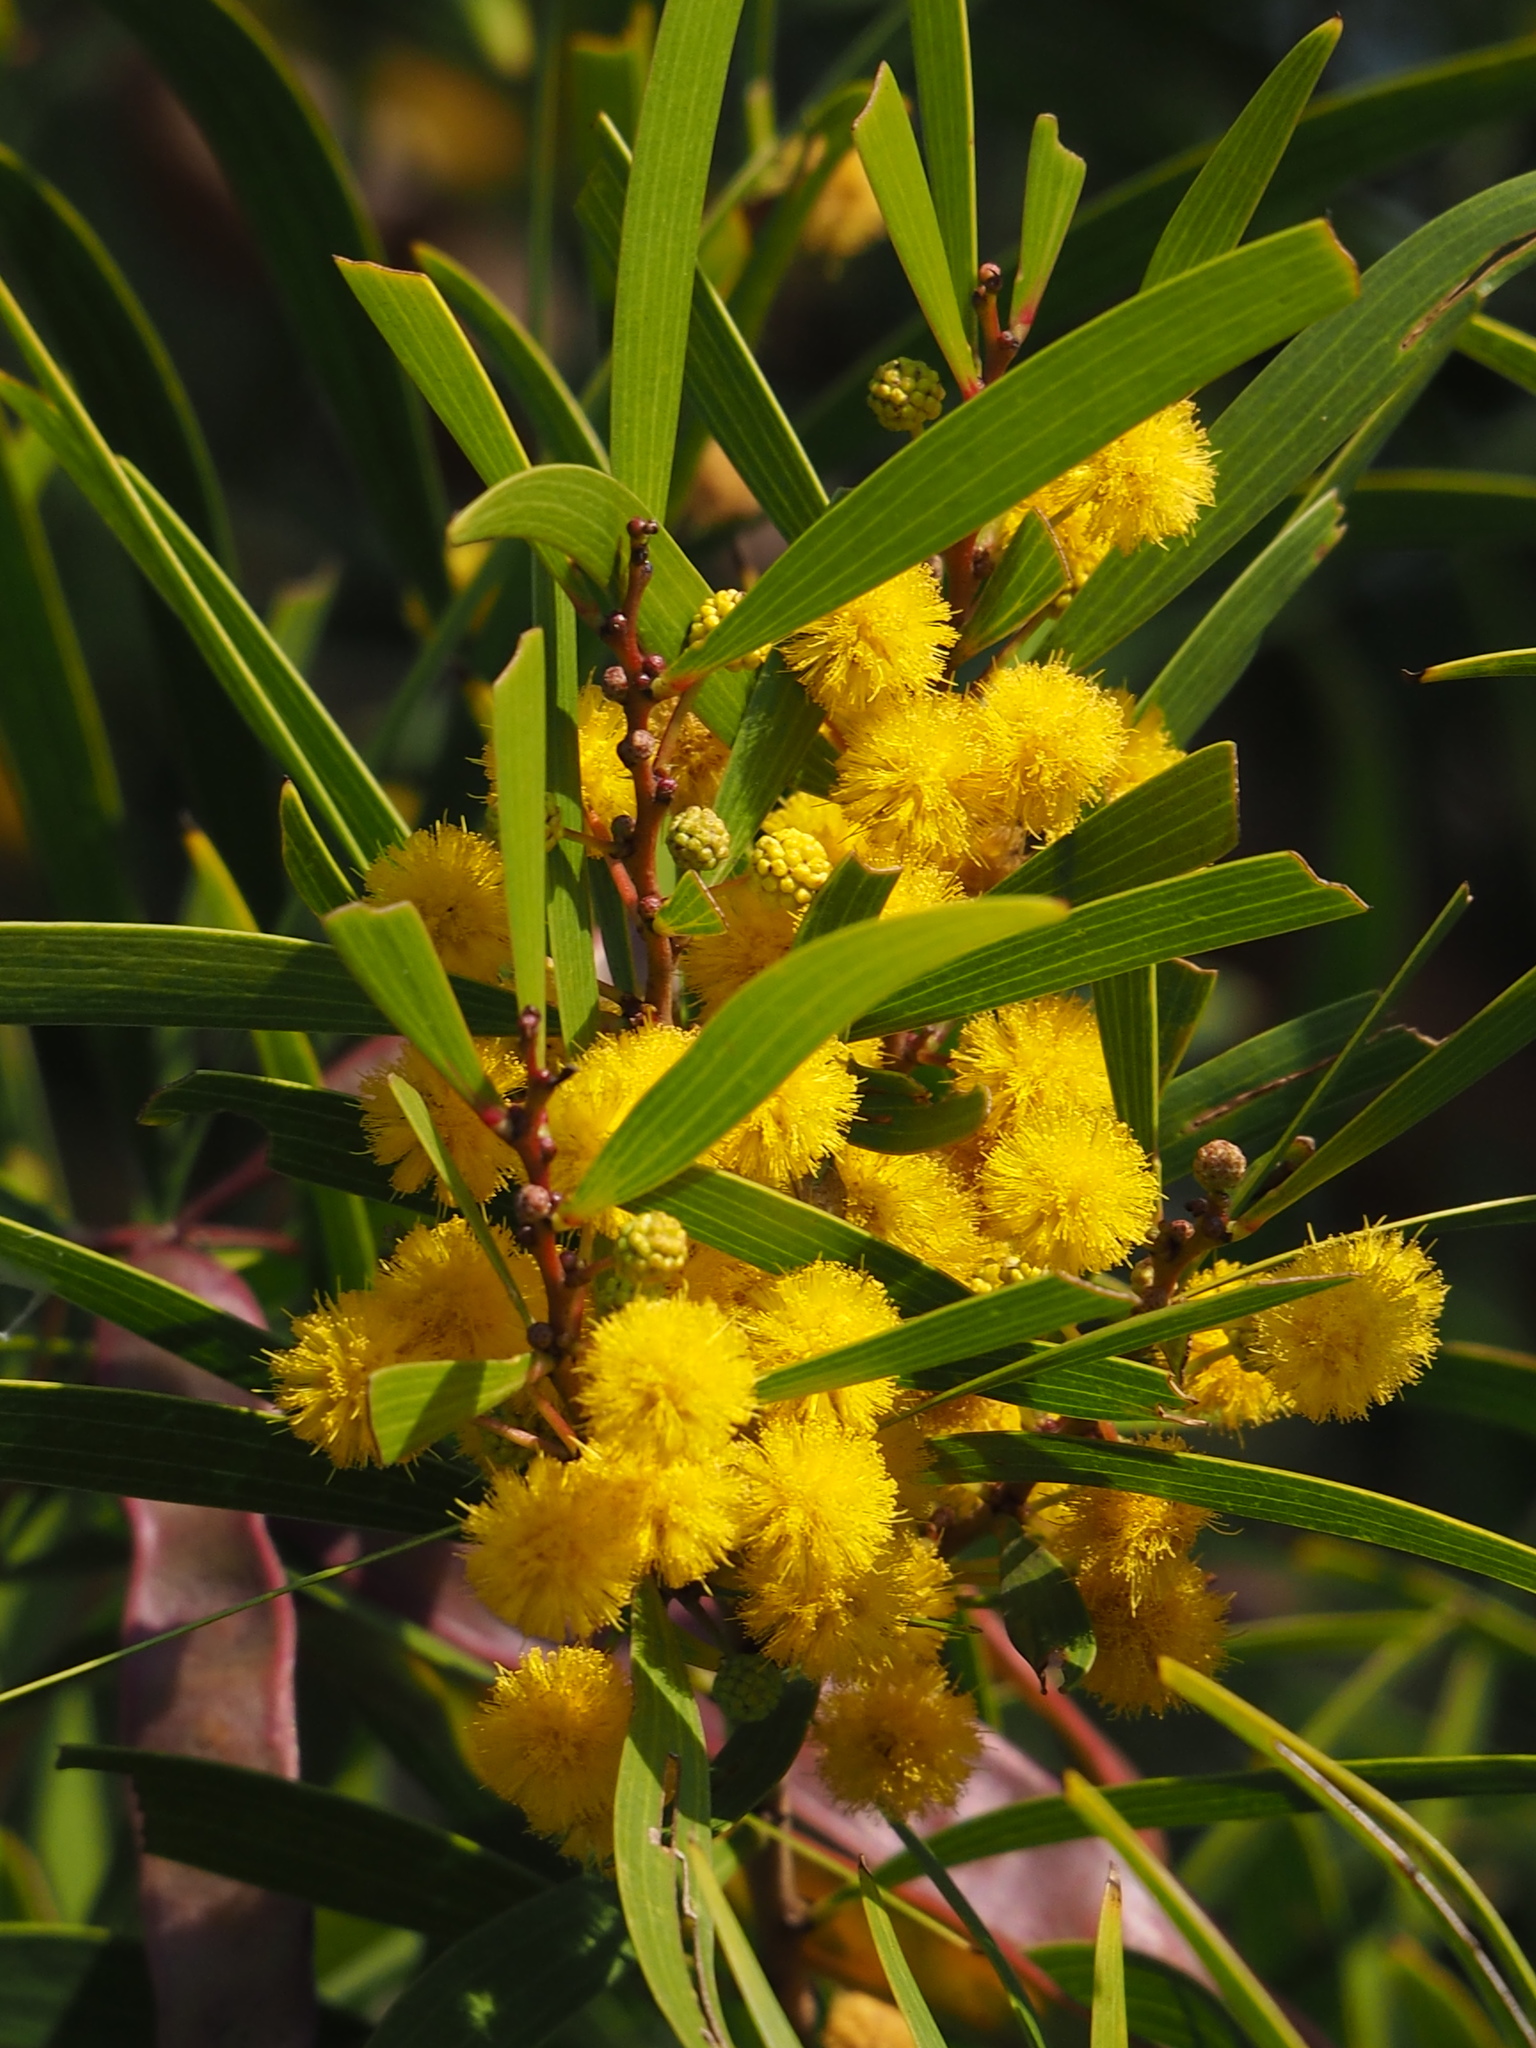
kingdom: Plantae
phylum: Tracheophyta
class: Magnoliopsida
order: Fabales
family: Fabaceae
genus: Acacia
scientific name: Acacia confusa
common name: Formosan koa
